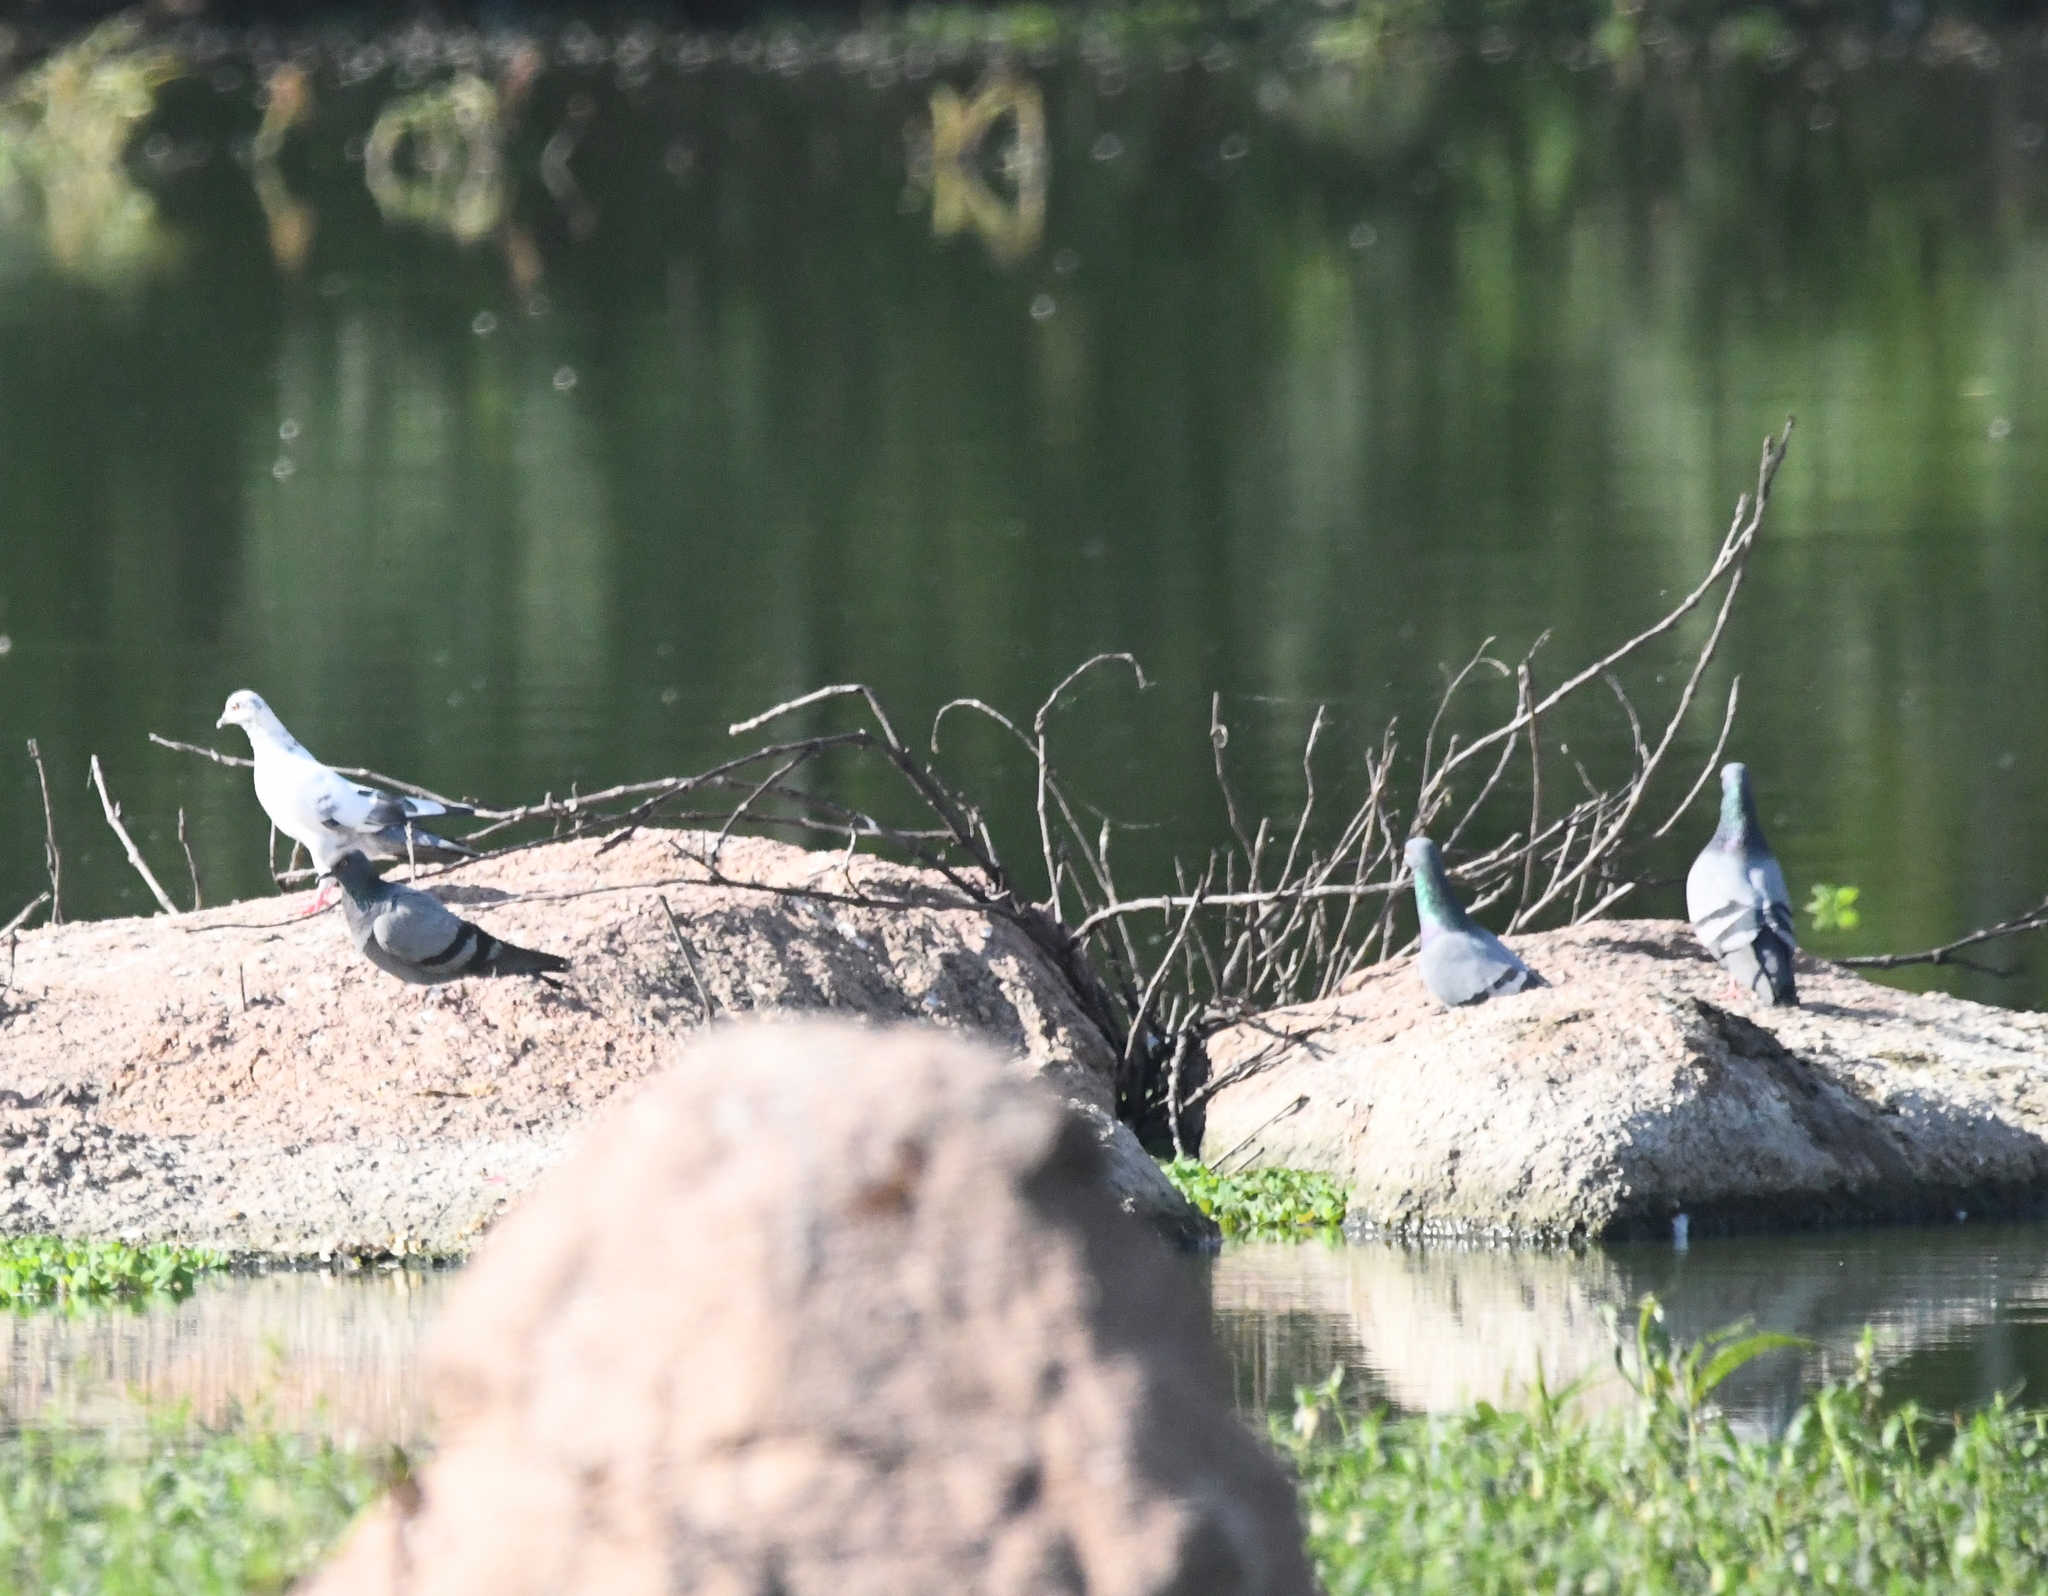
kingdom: Animalia
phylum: Chordata
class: Aves
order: Columbiformes
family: Columbidae
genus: Columba
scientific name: Columba livia
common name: Rock pigeon
